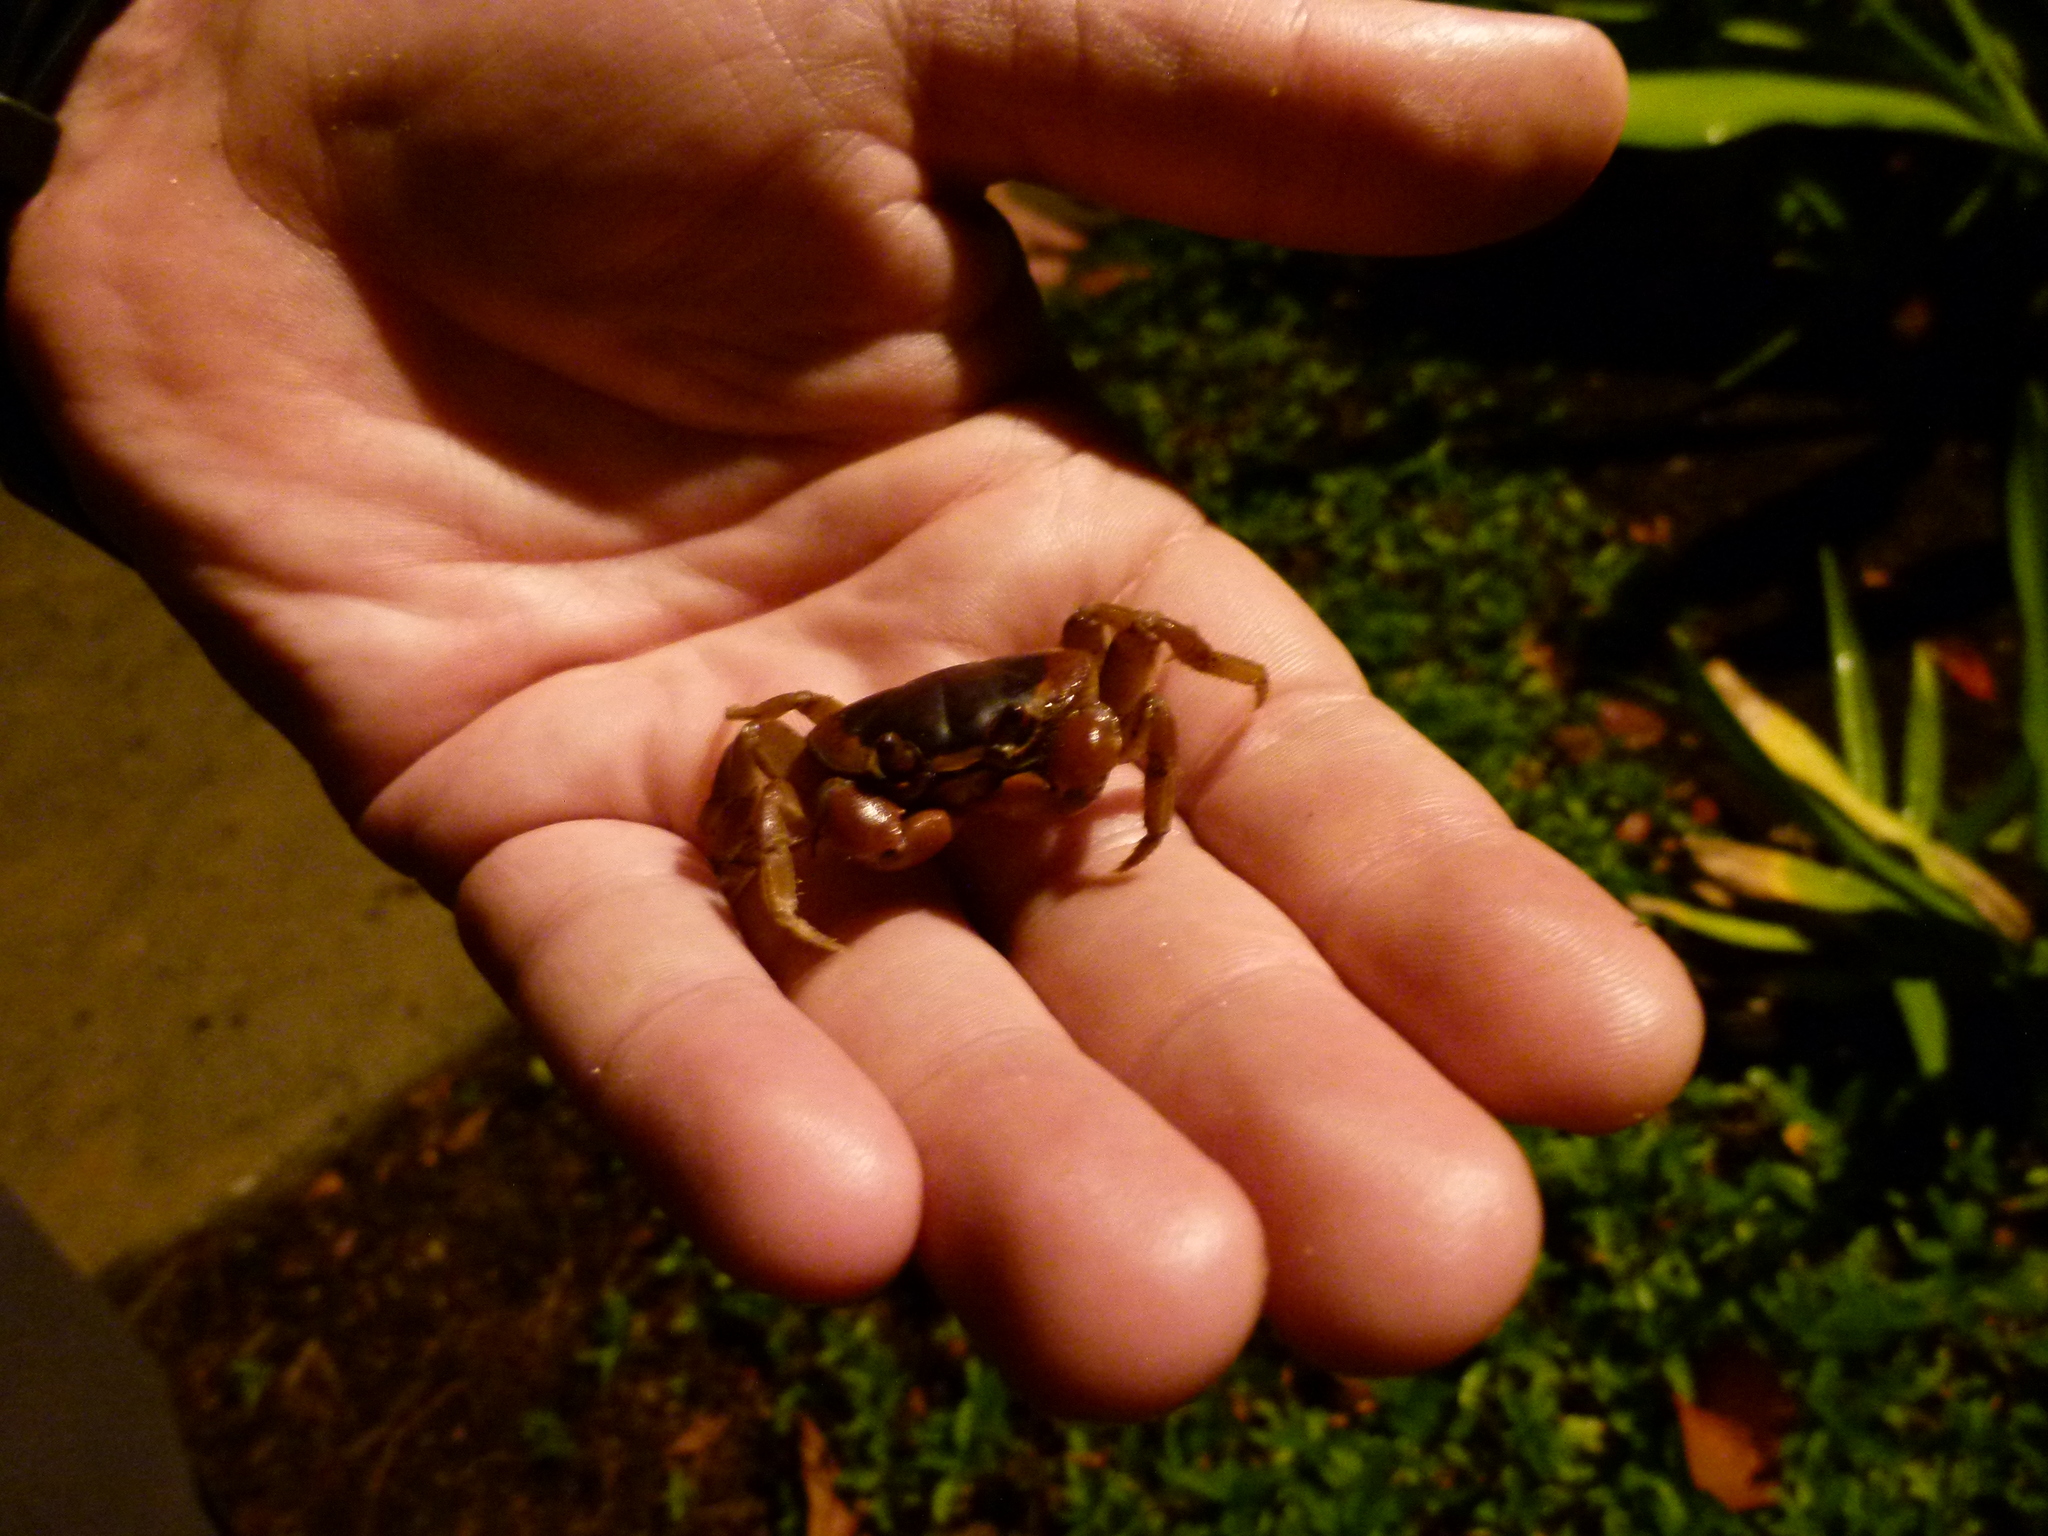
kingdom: Animalia
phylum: Arthropoda
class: Malacostraca
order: Decapoda
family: Gecarcinidae
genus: Gecarcinus
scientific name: Gecarcinus lateralis
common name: Bermuda land crab
